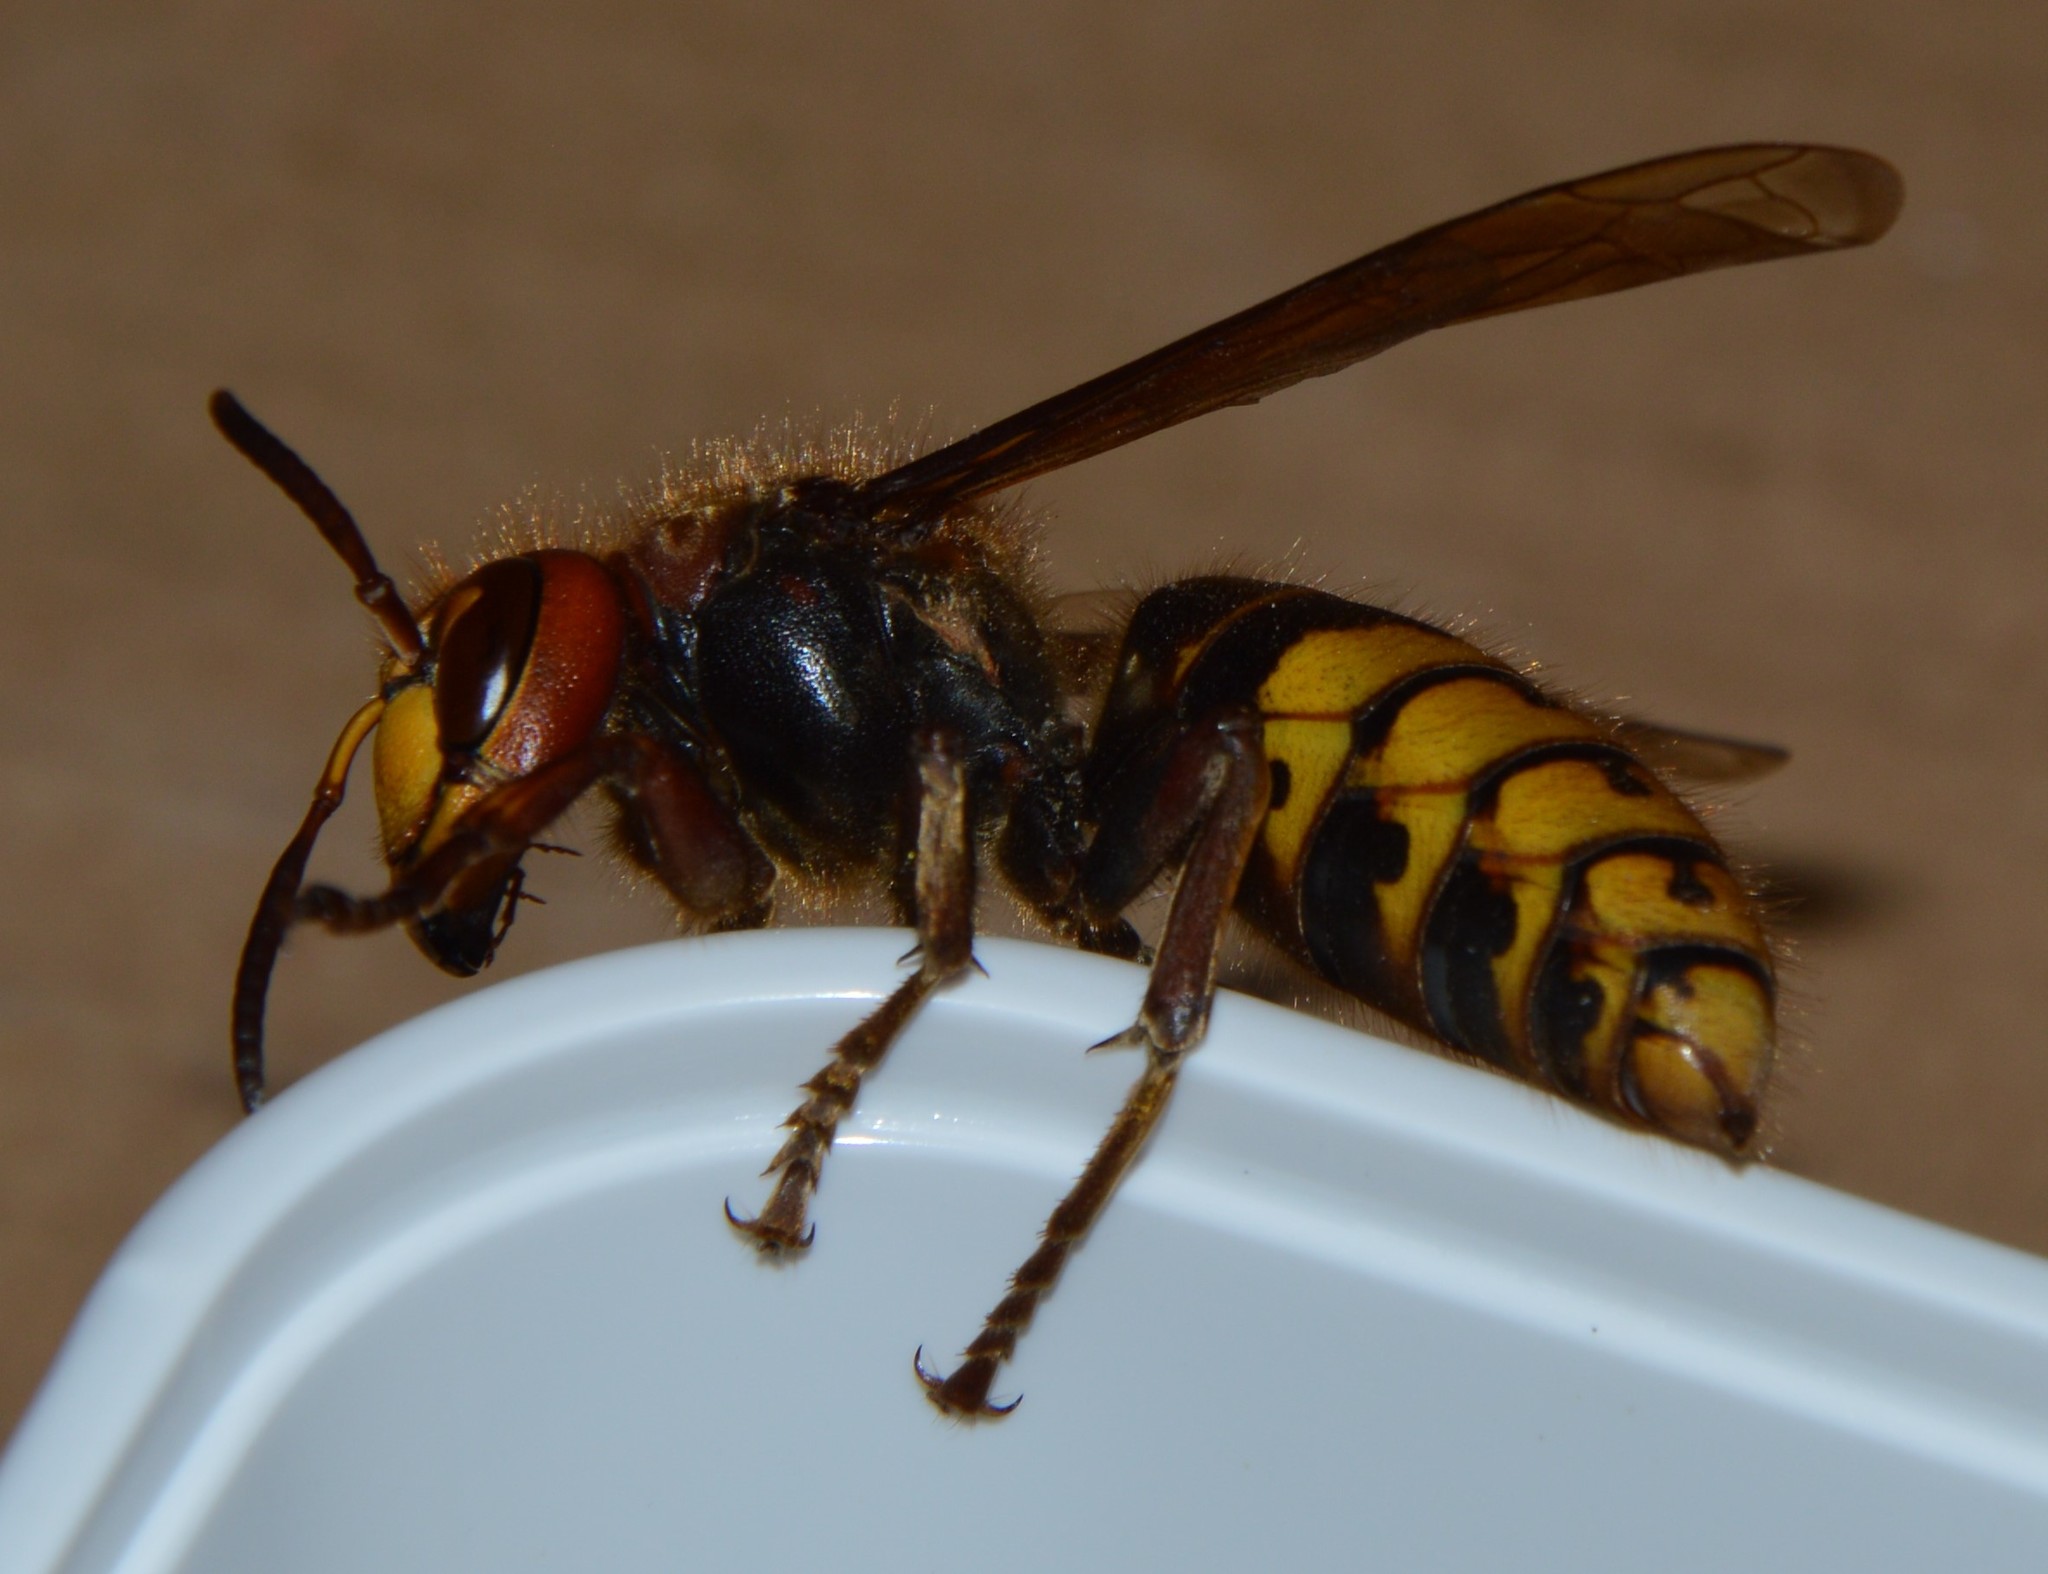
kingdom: Animalia
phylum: Arthropoda
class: Insecta
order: Hymenoptera
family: Vespidae
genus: Vespa
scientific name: Vespa crabro
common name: Hornet
